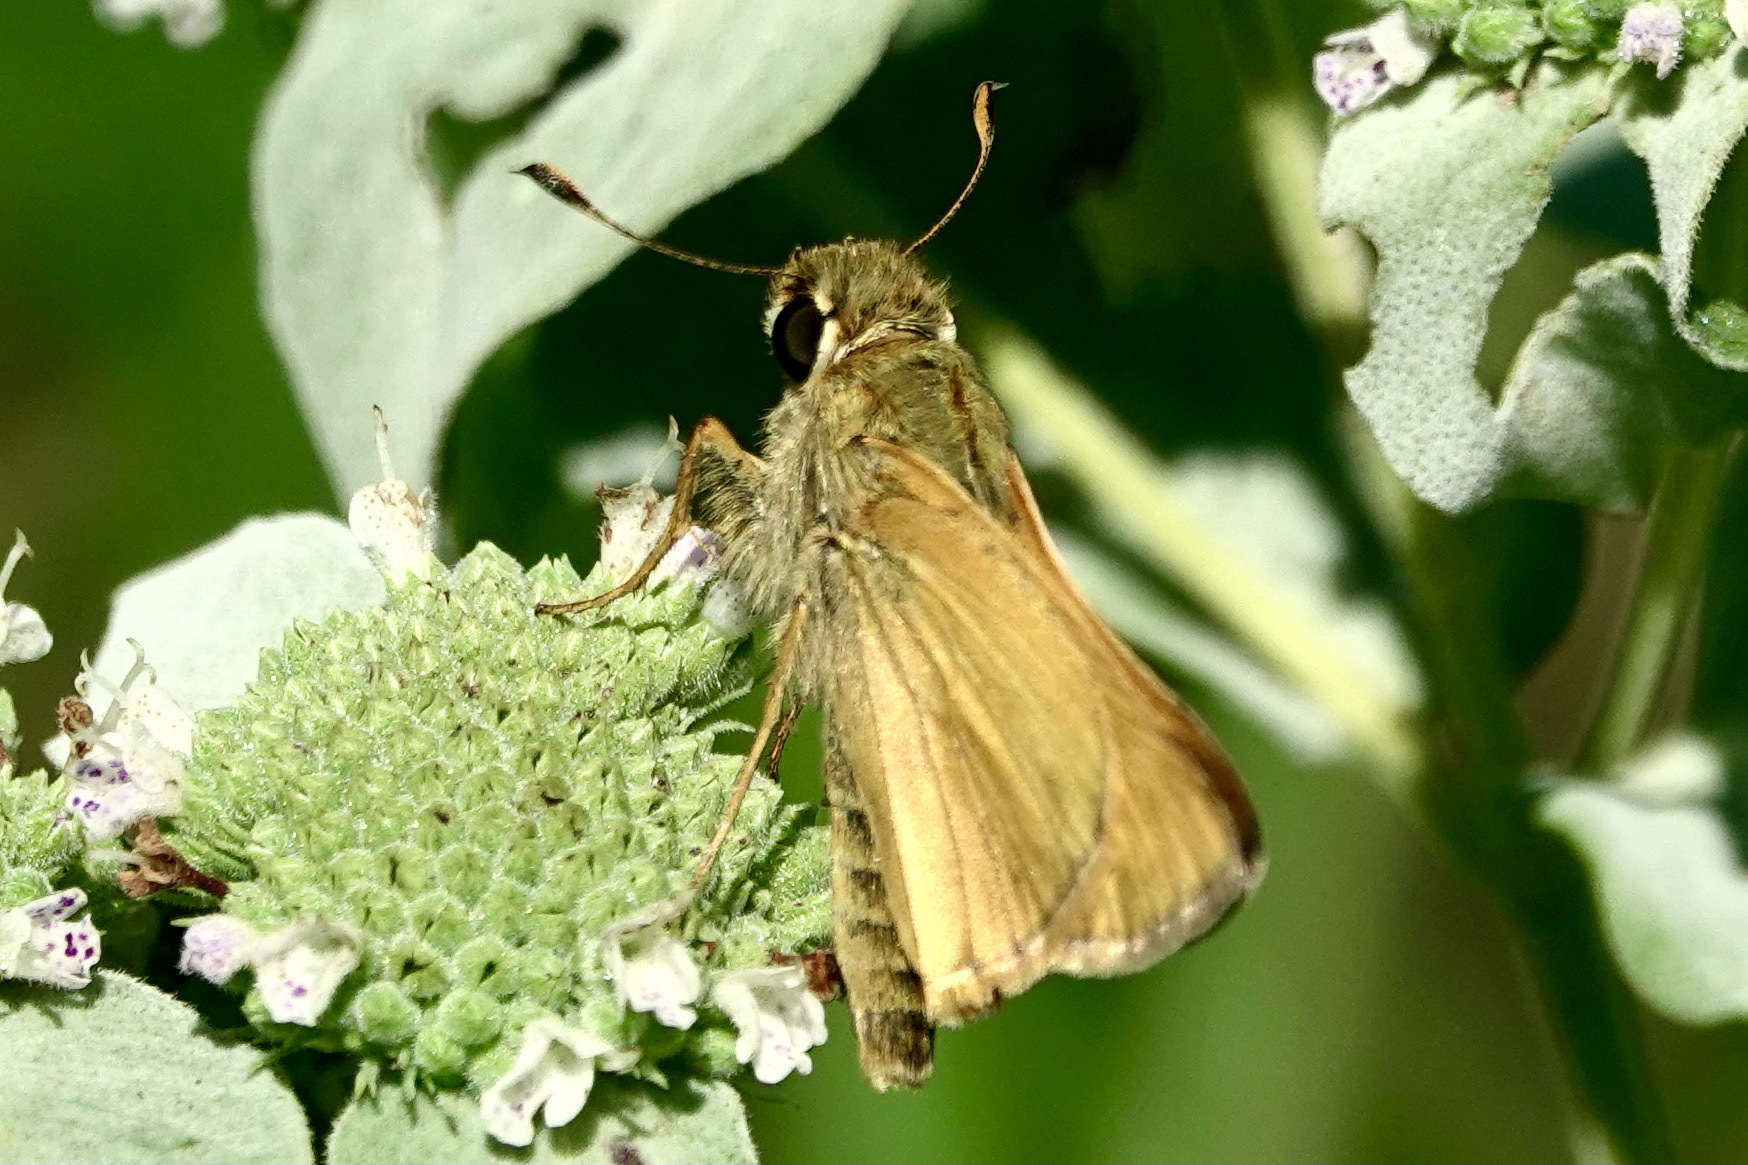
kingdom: Animalia
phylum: Arthropoda
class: Insecta
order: Lepidoptera
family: Hesperiidae
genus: Atalopedes
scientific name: Atalopedes
